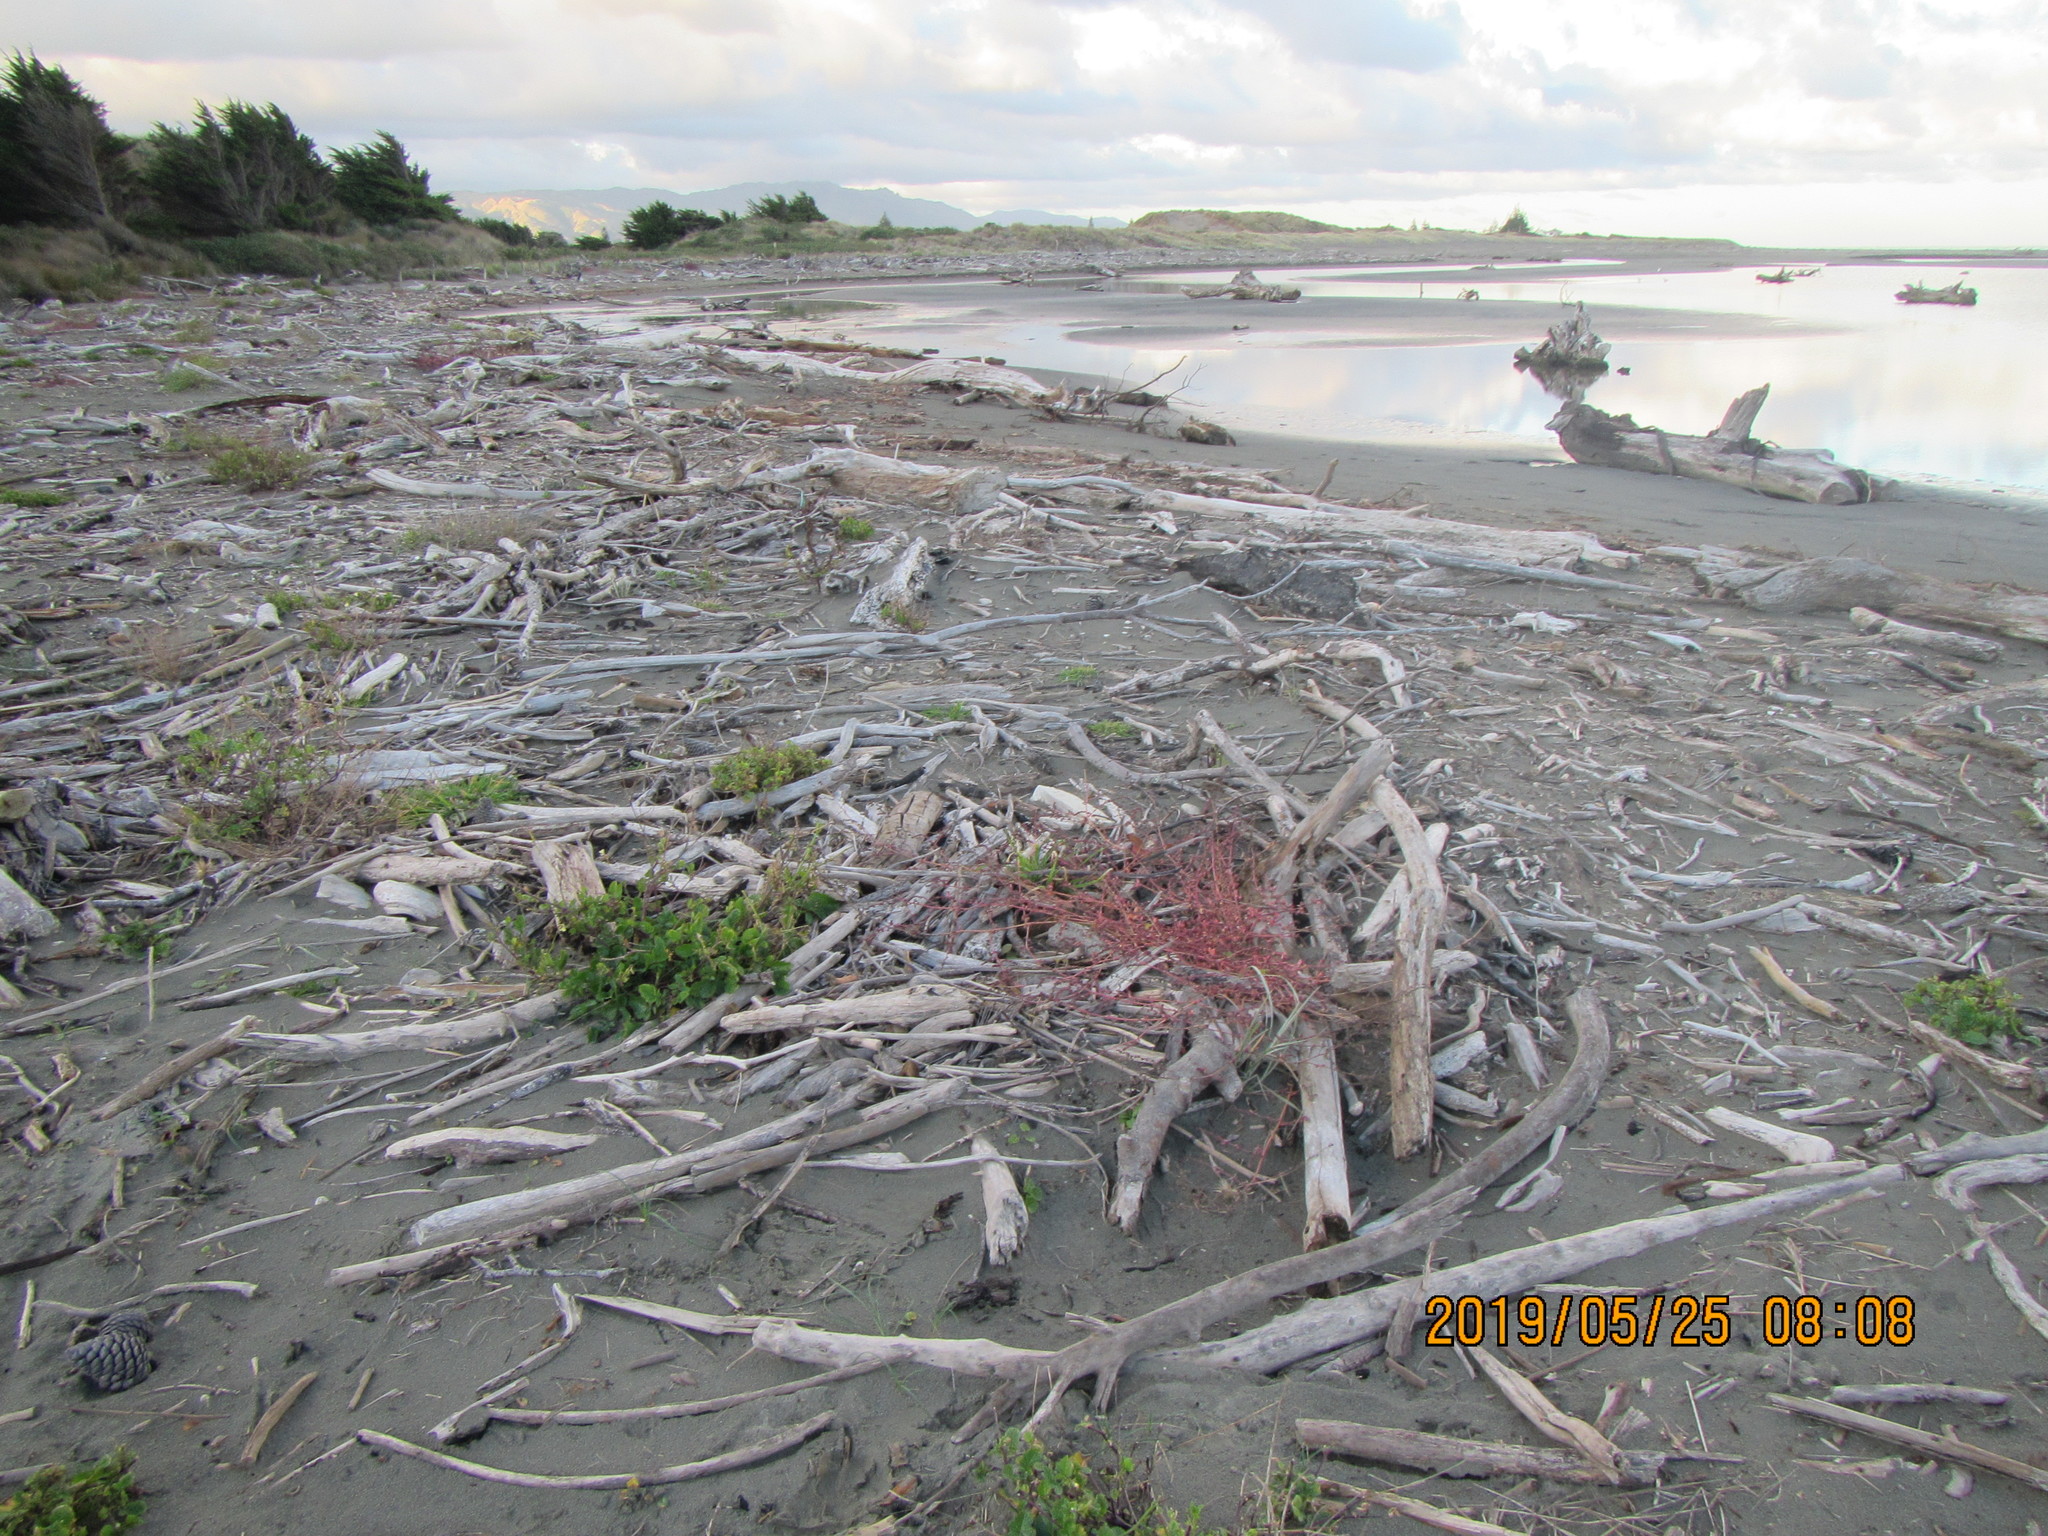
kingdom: Plantae
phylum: Tracheophyta
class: Magnoliopsida
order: Caryophyllales
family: Amaranthaceae
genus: Atriplex
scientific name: Atriplex prostrata
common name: Spear-leaved orache
